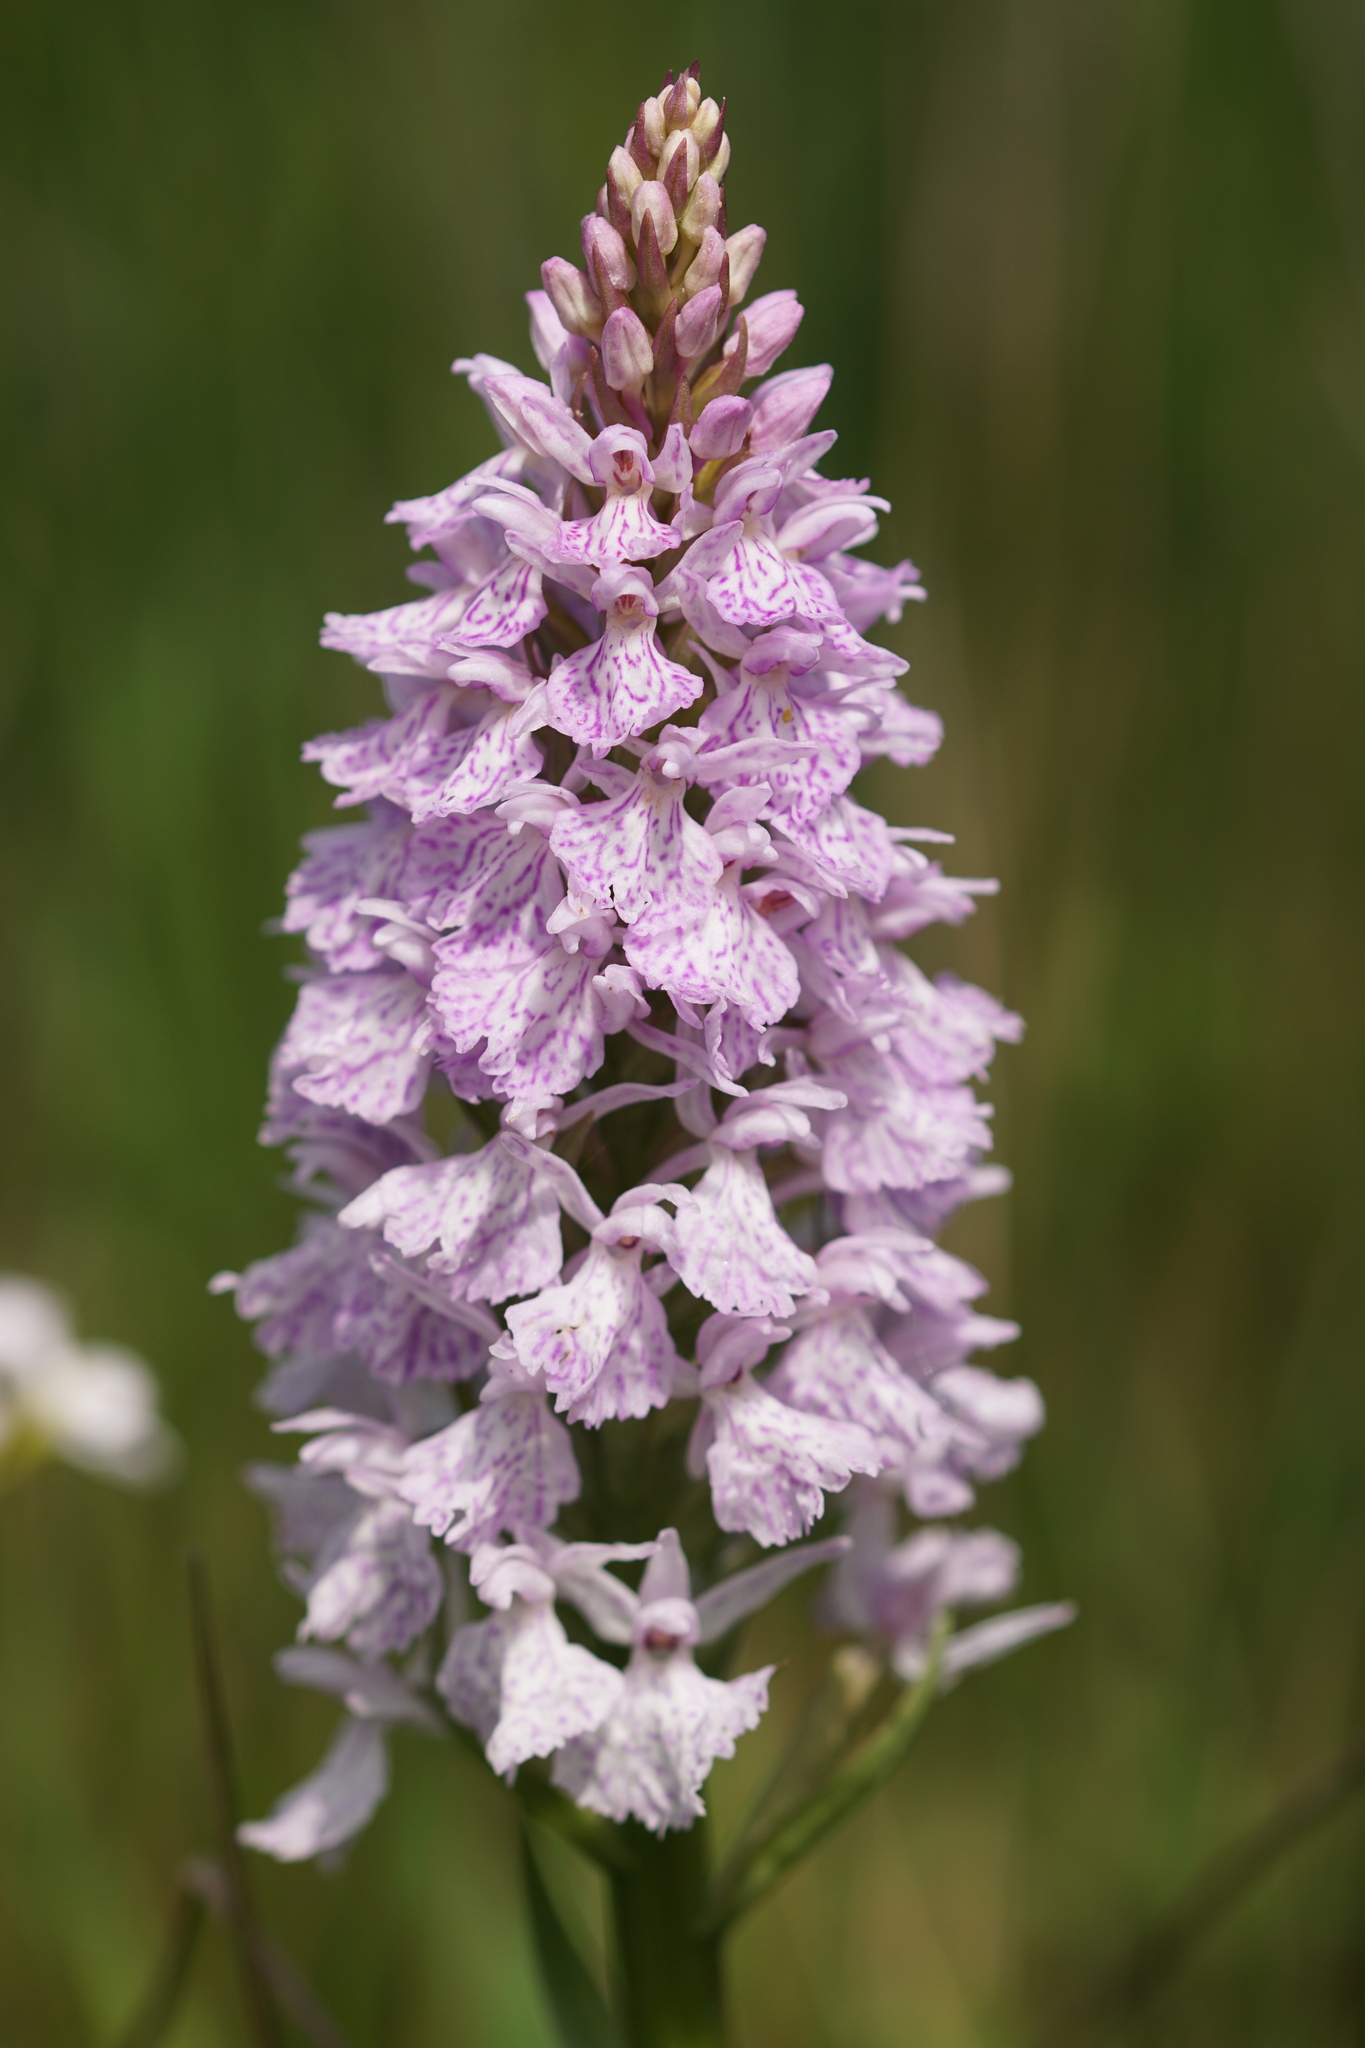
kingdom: Plantae
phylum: Tracheophyta
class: Liliopsida
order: Asparagales
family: Orchidaceae
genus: Dactylorhiza
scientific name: Dactylorhiza maculata
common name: Heath spotted-orchid
